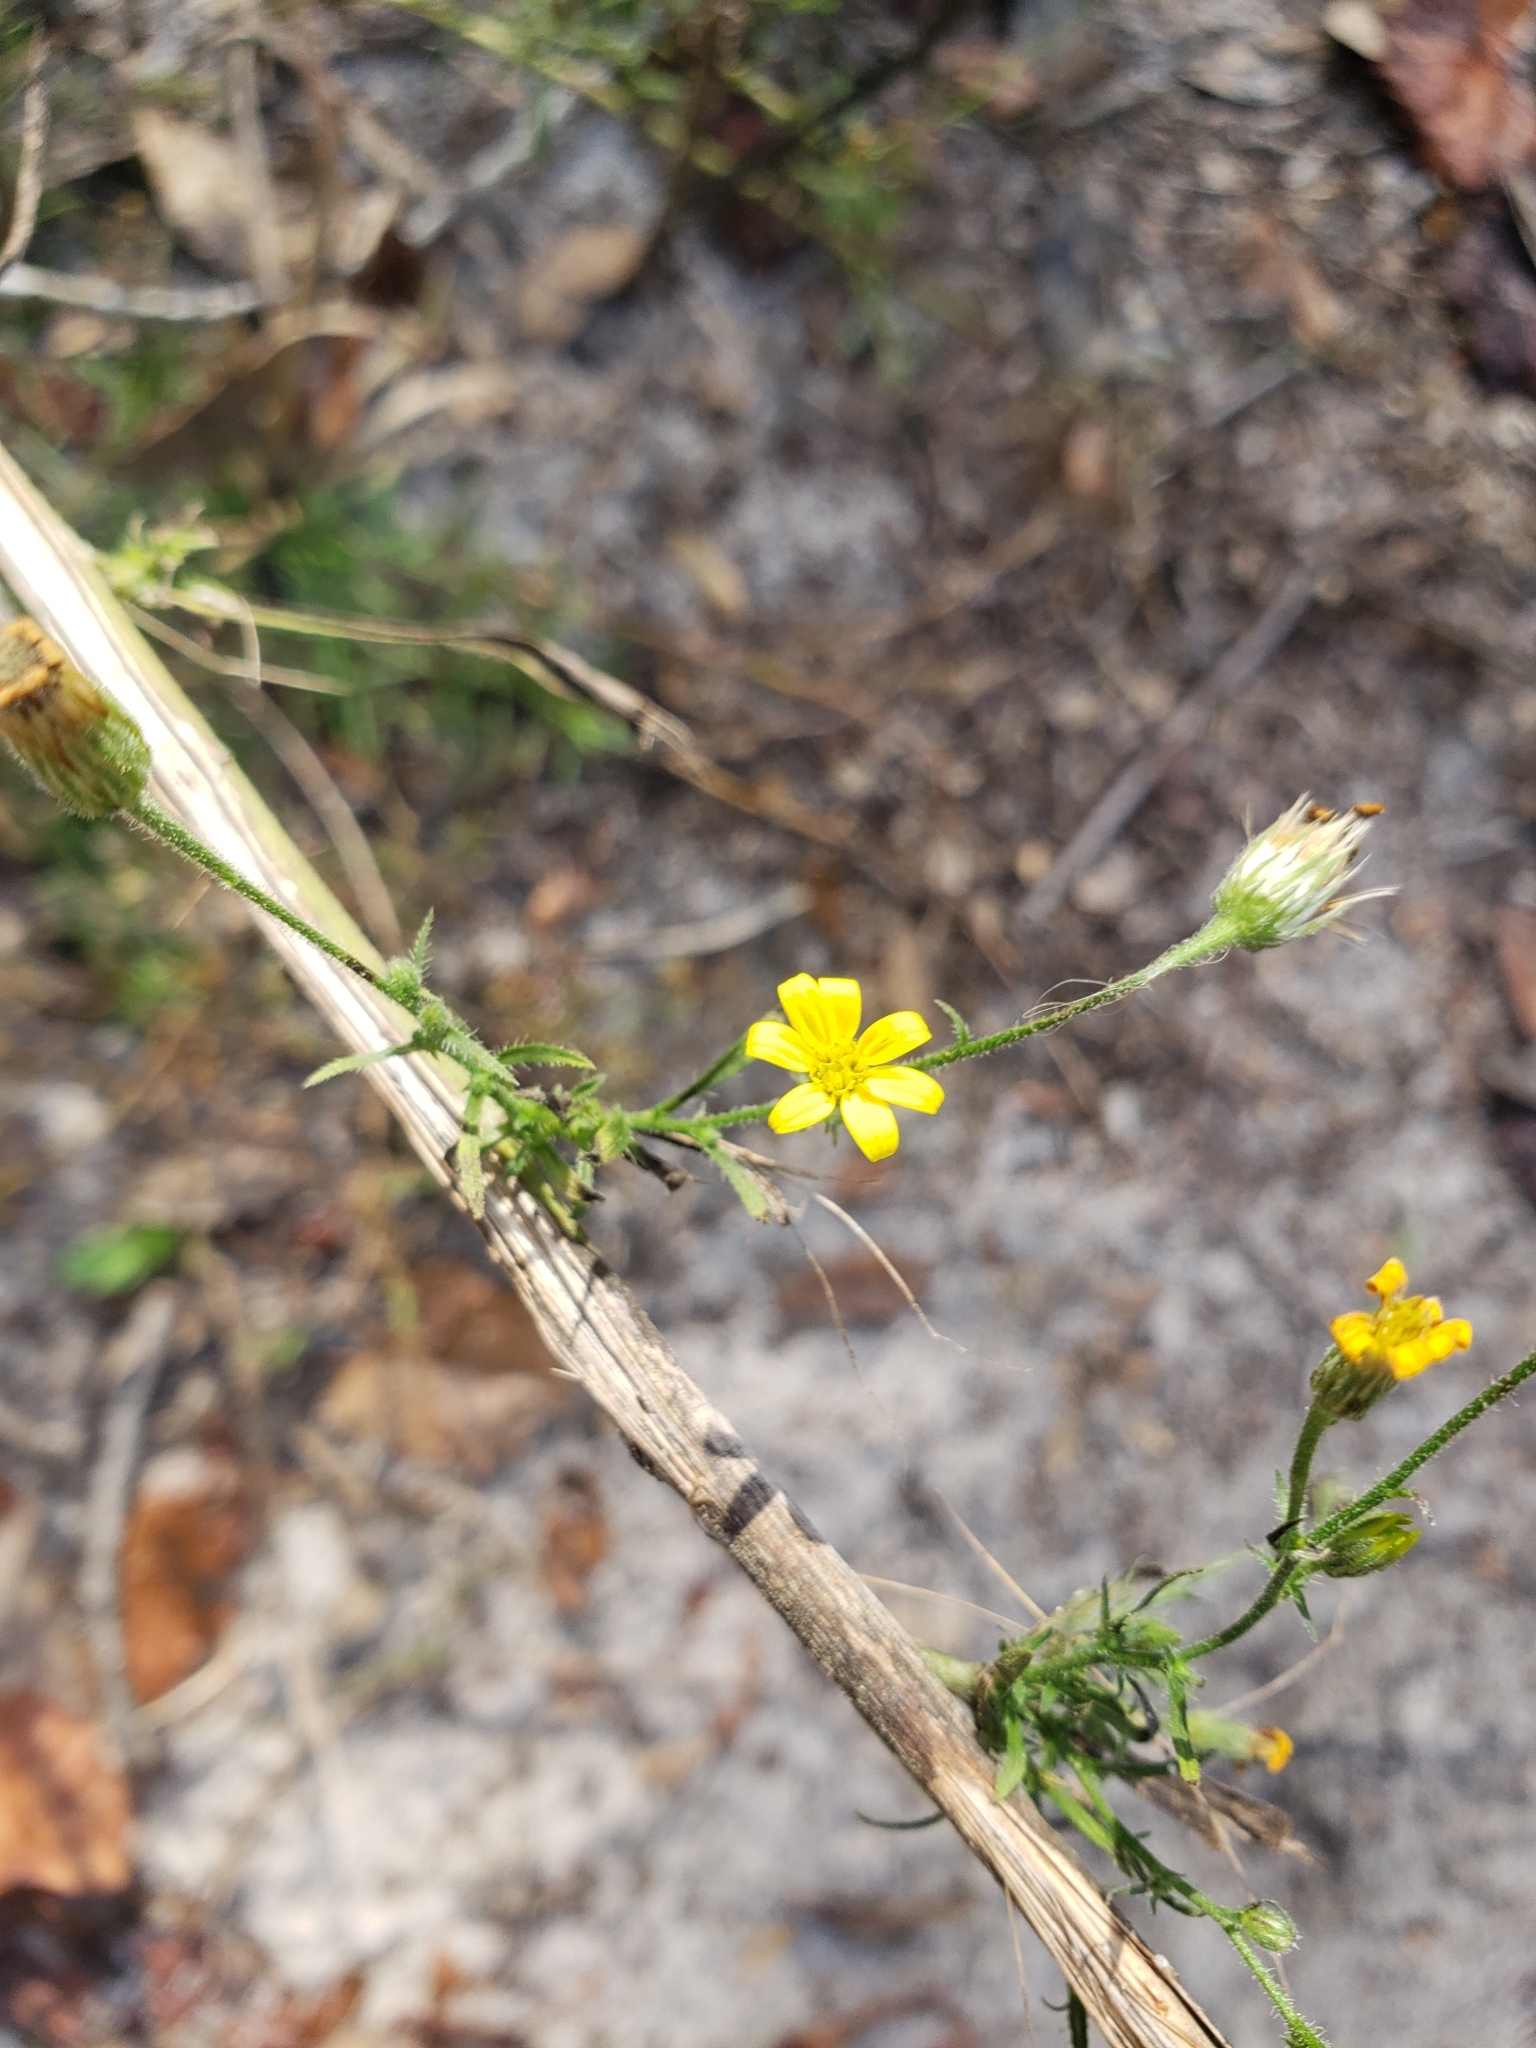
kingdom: Plantae
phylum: Tracheophyta
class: Magnoliopsida
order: Asterales
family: Asteraceae
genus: Croptilon
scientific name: Croptilon divaricatum
